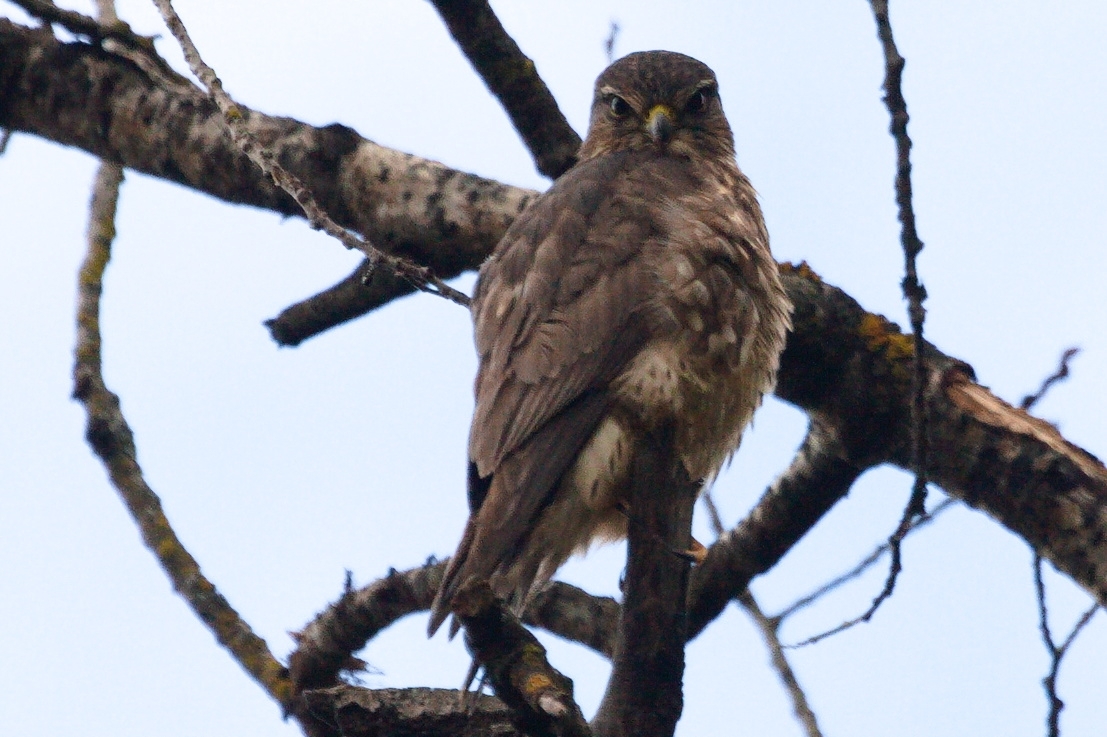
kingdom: Animalia
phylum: Chordata
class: Aves
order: Falconiformes
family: Falconidae
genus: Falco
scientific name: Falco columbarius
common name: Merlin
